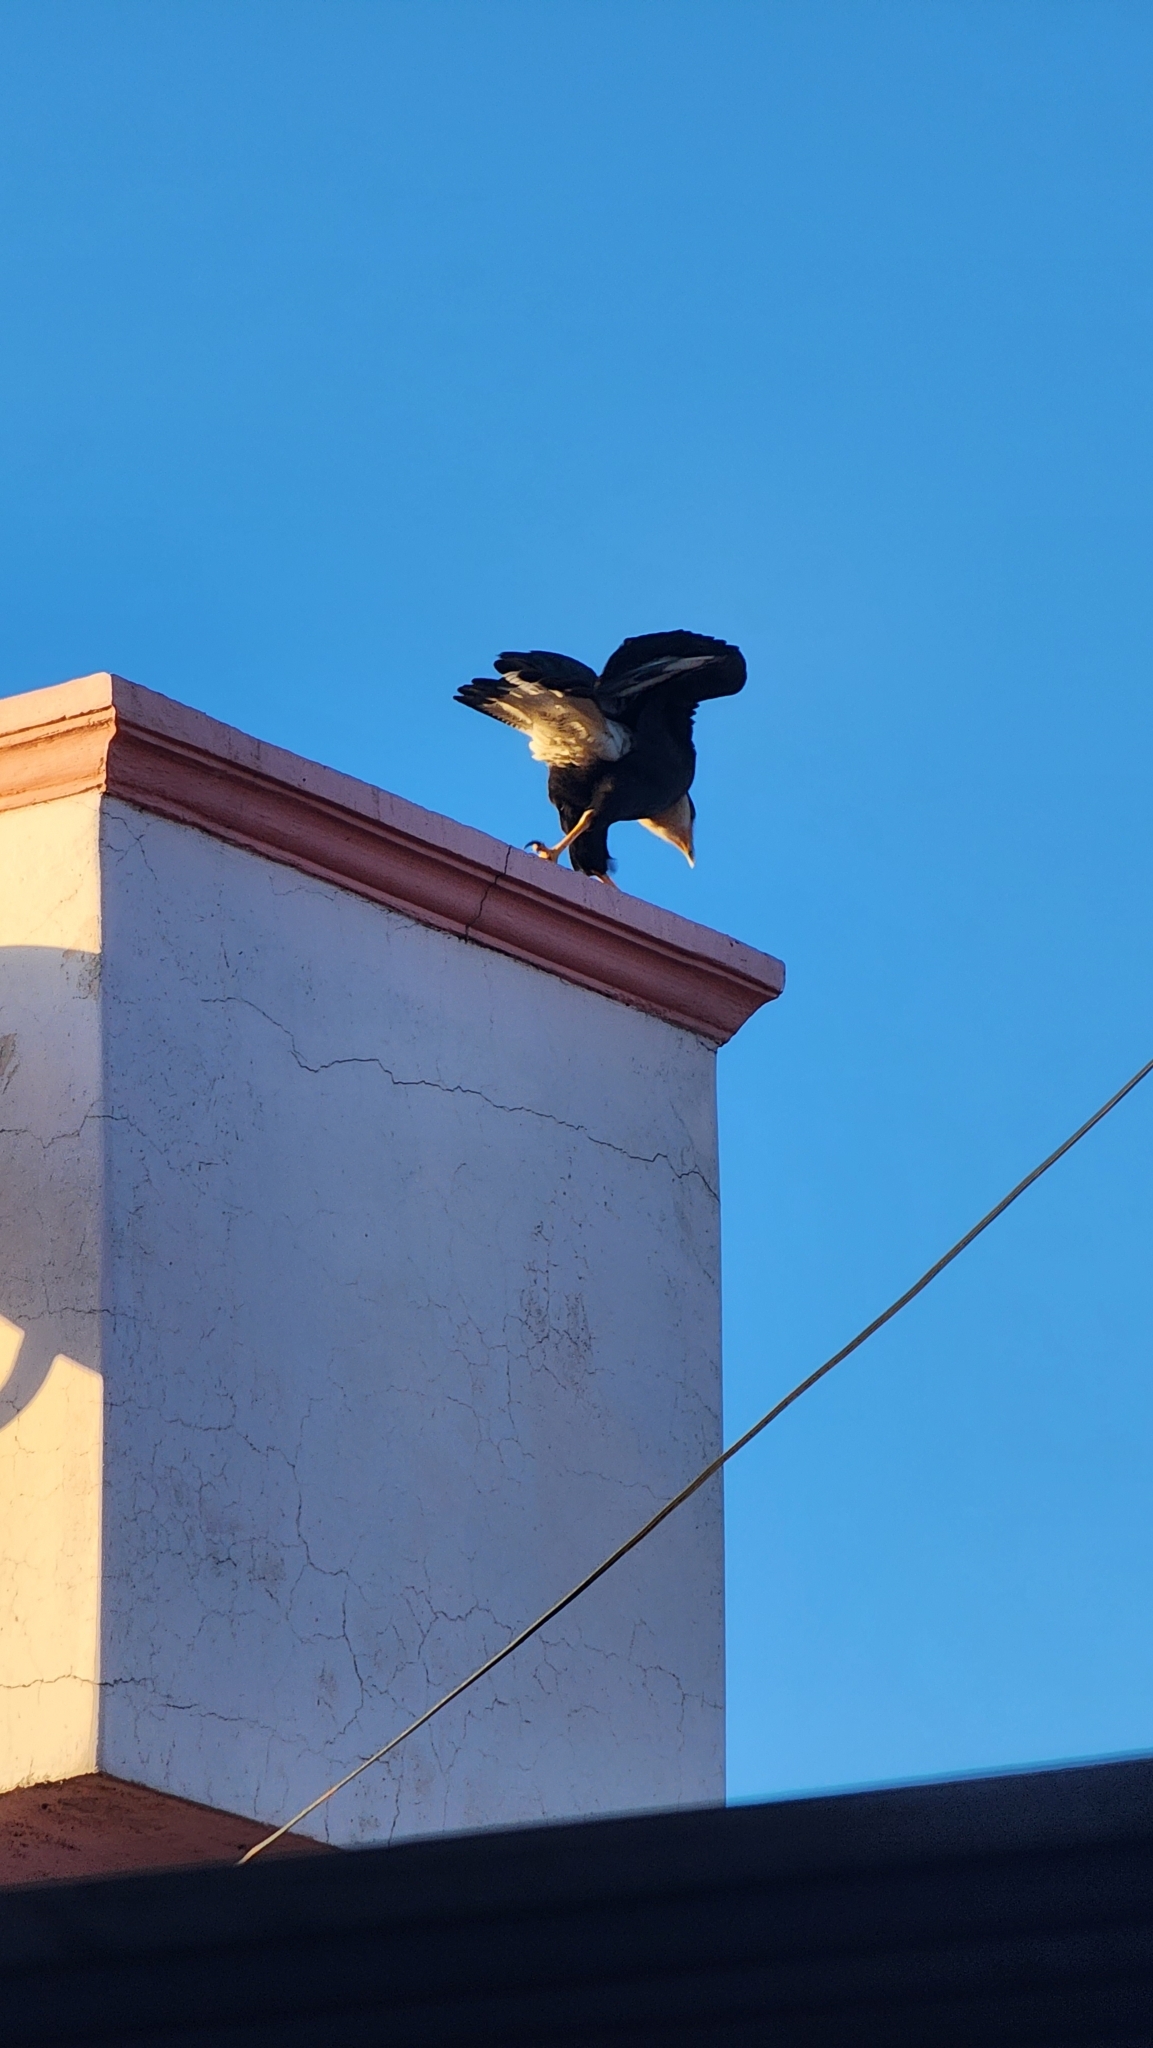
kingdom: Animalia
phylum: Chordata
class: Aves
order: Falconiformes
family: Falconidae
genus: Caracara
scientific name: Caracara plancus
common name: Southern caracara
